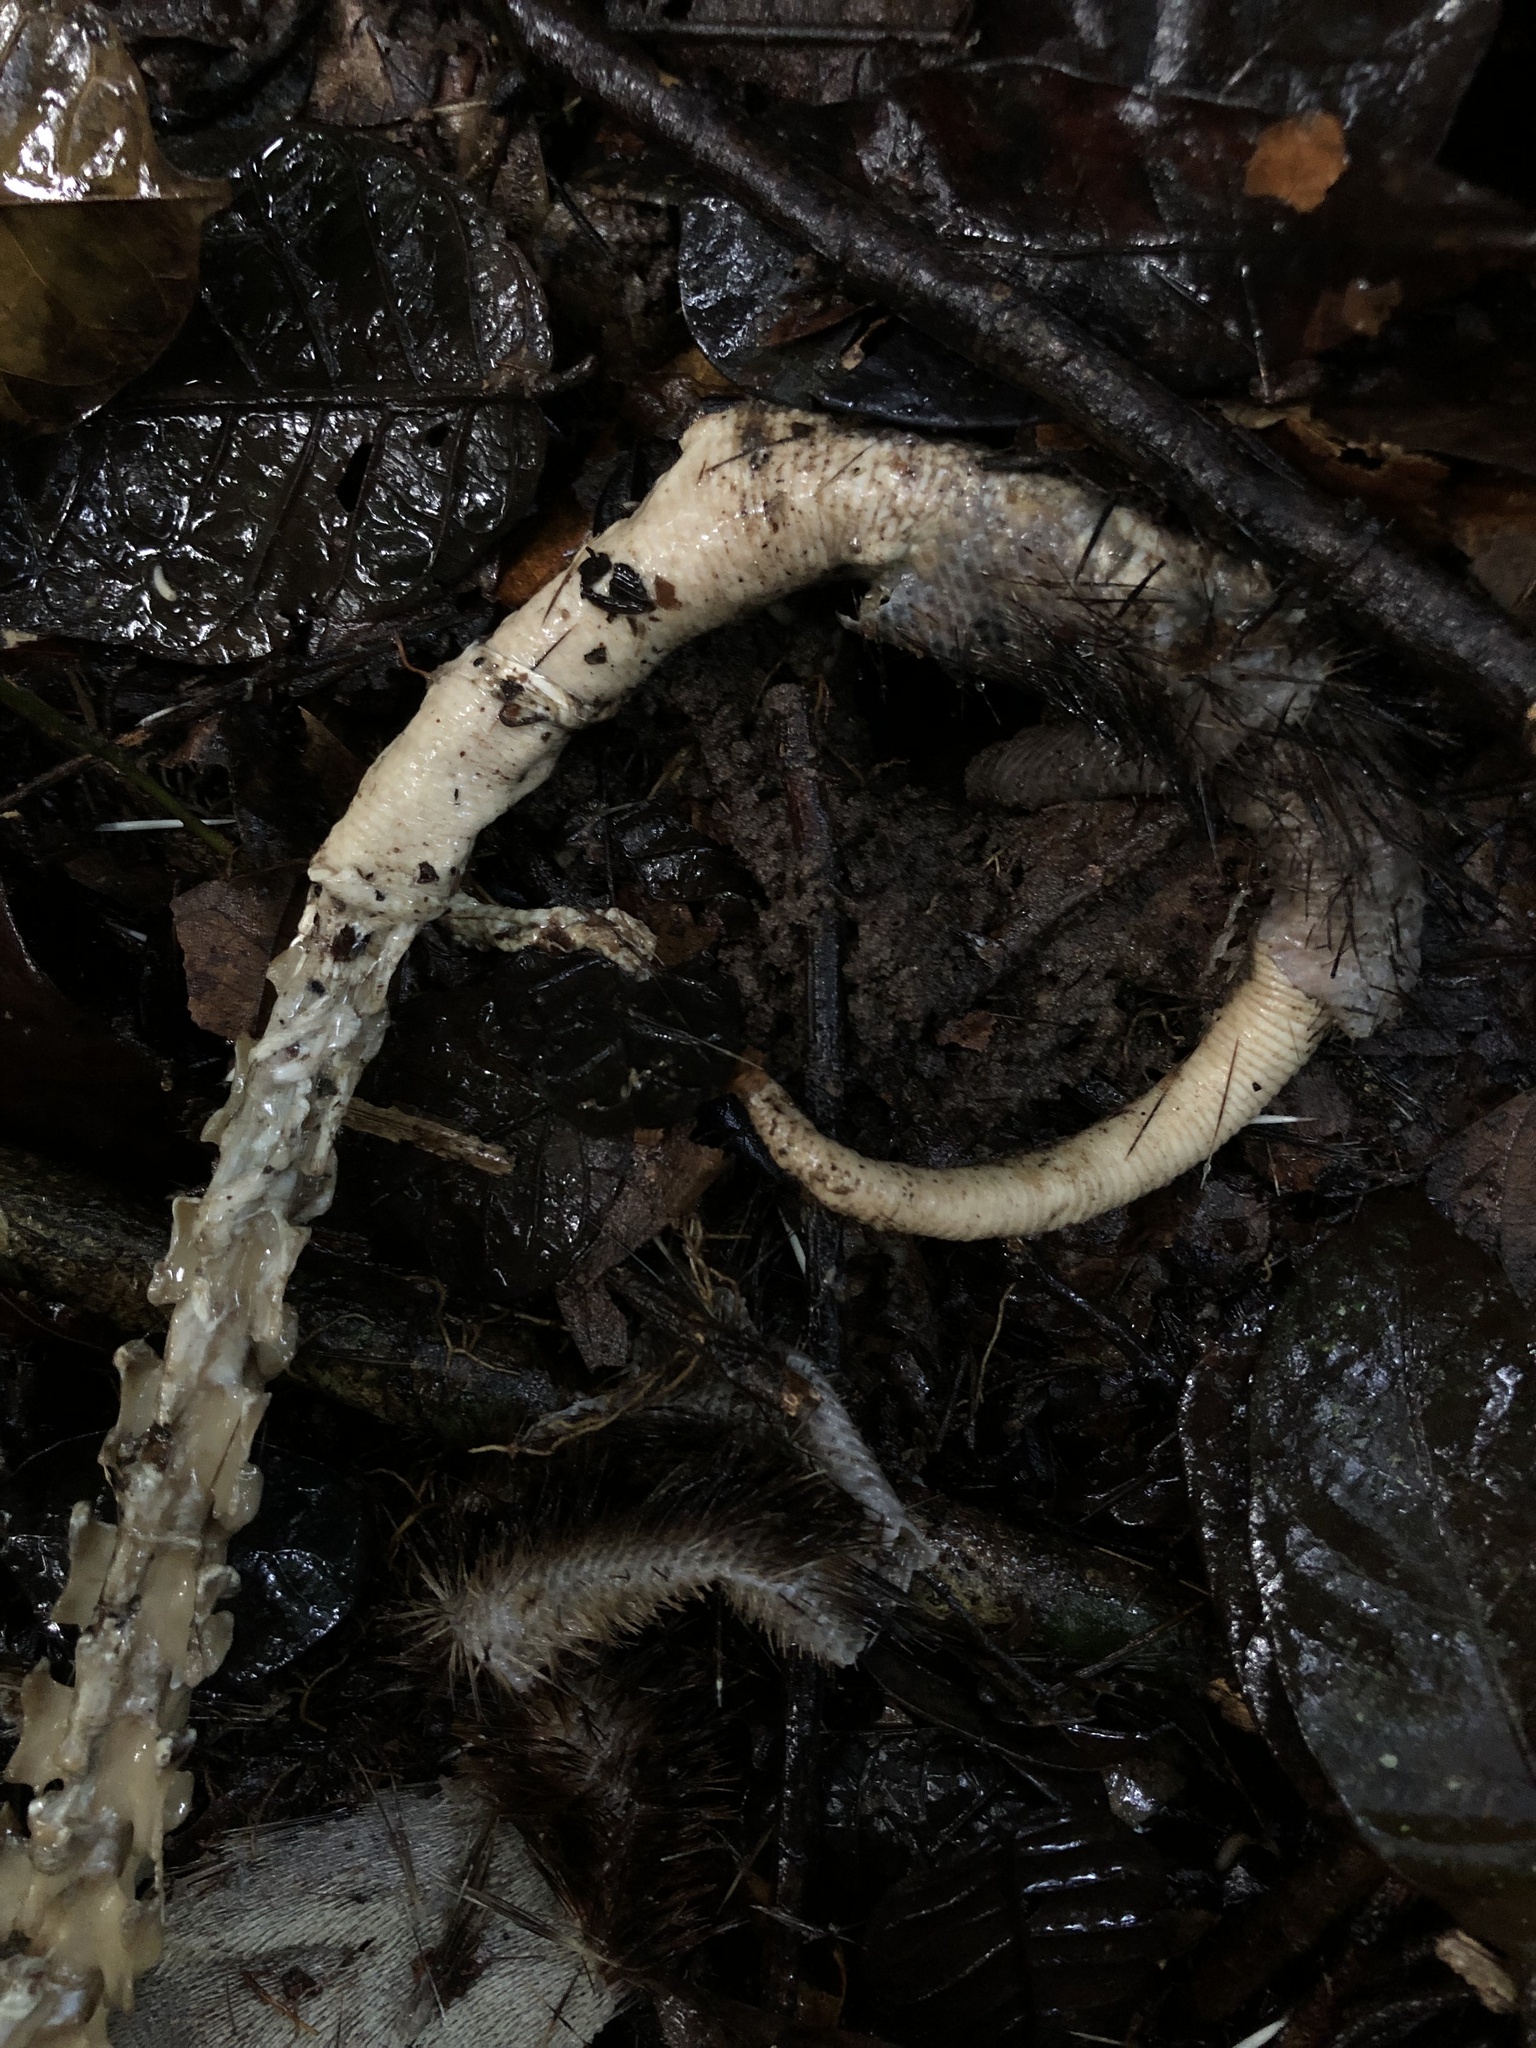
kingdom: Animalia
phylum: Chordata
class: Mammalia
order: Rodentia
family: Erethizontidae
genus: Coendou
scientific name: Coendou prehensilis
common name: Brazilian porcupine
